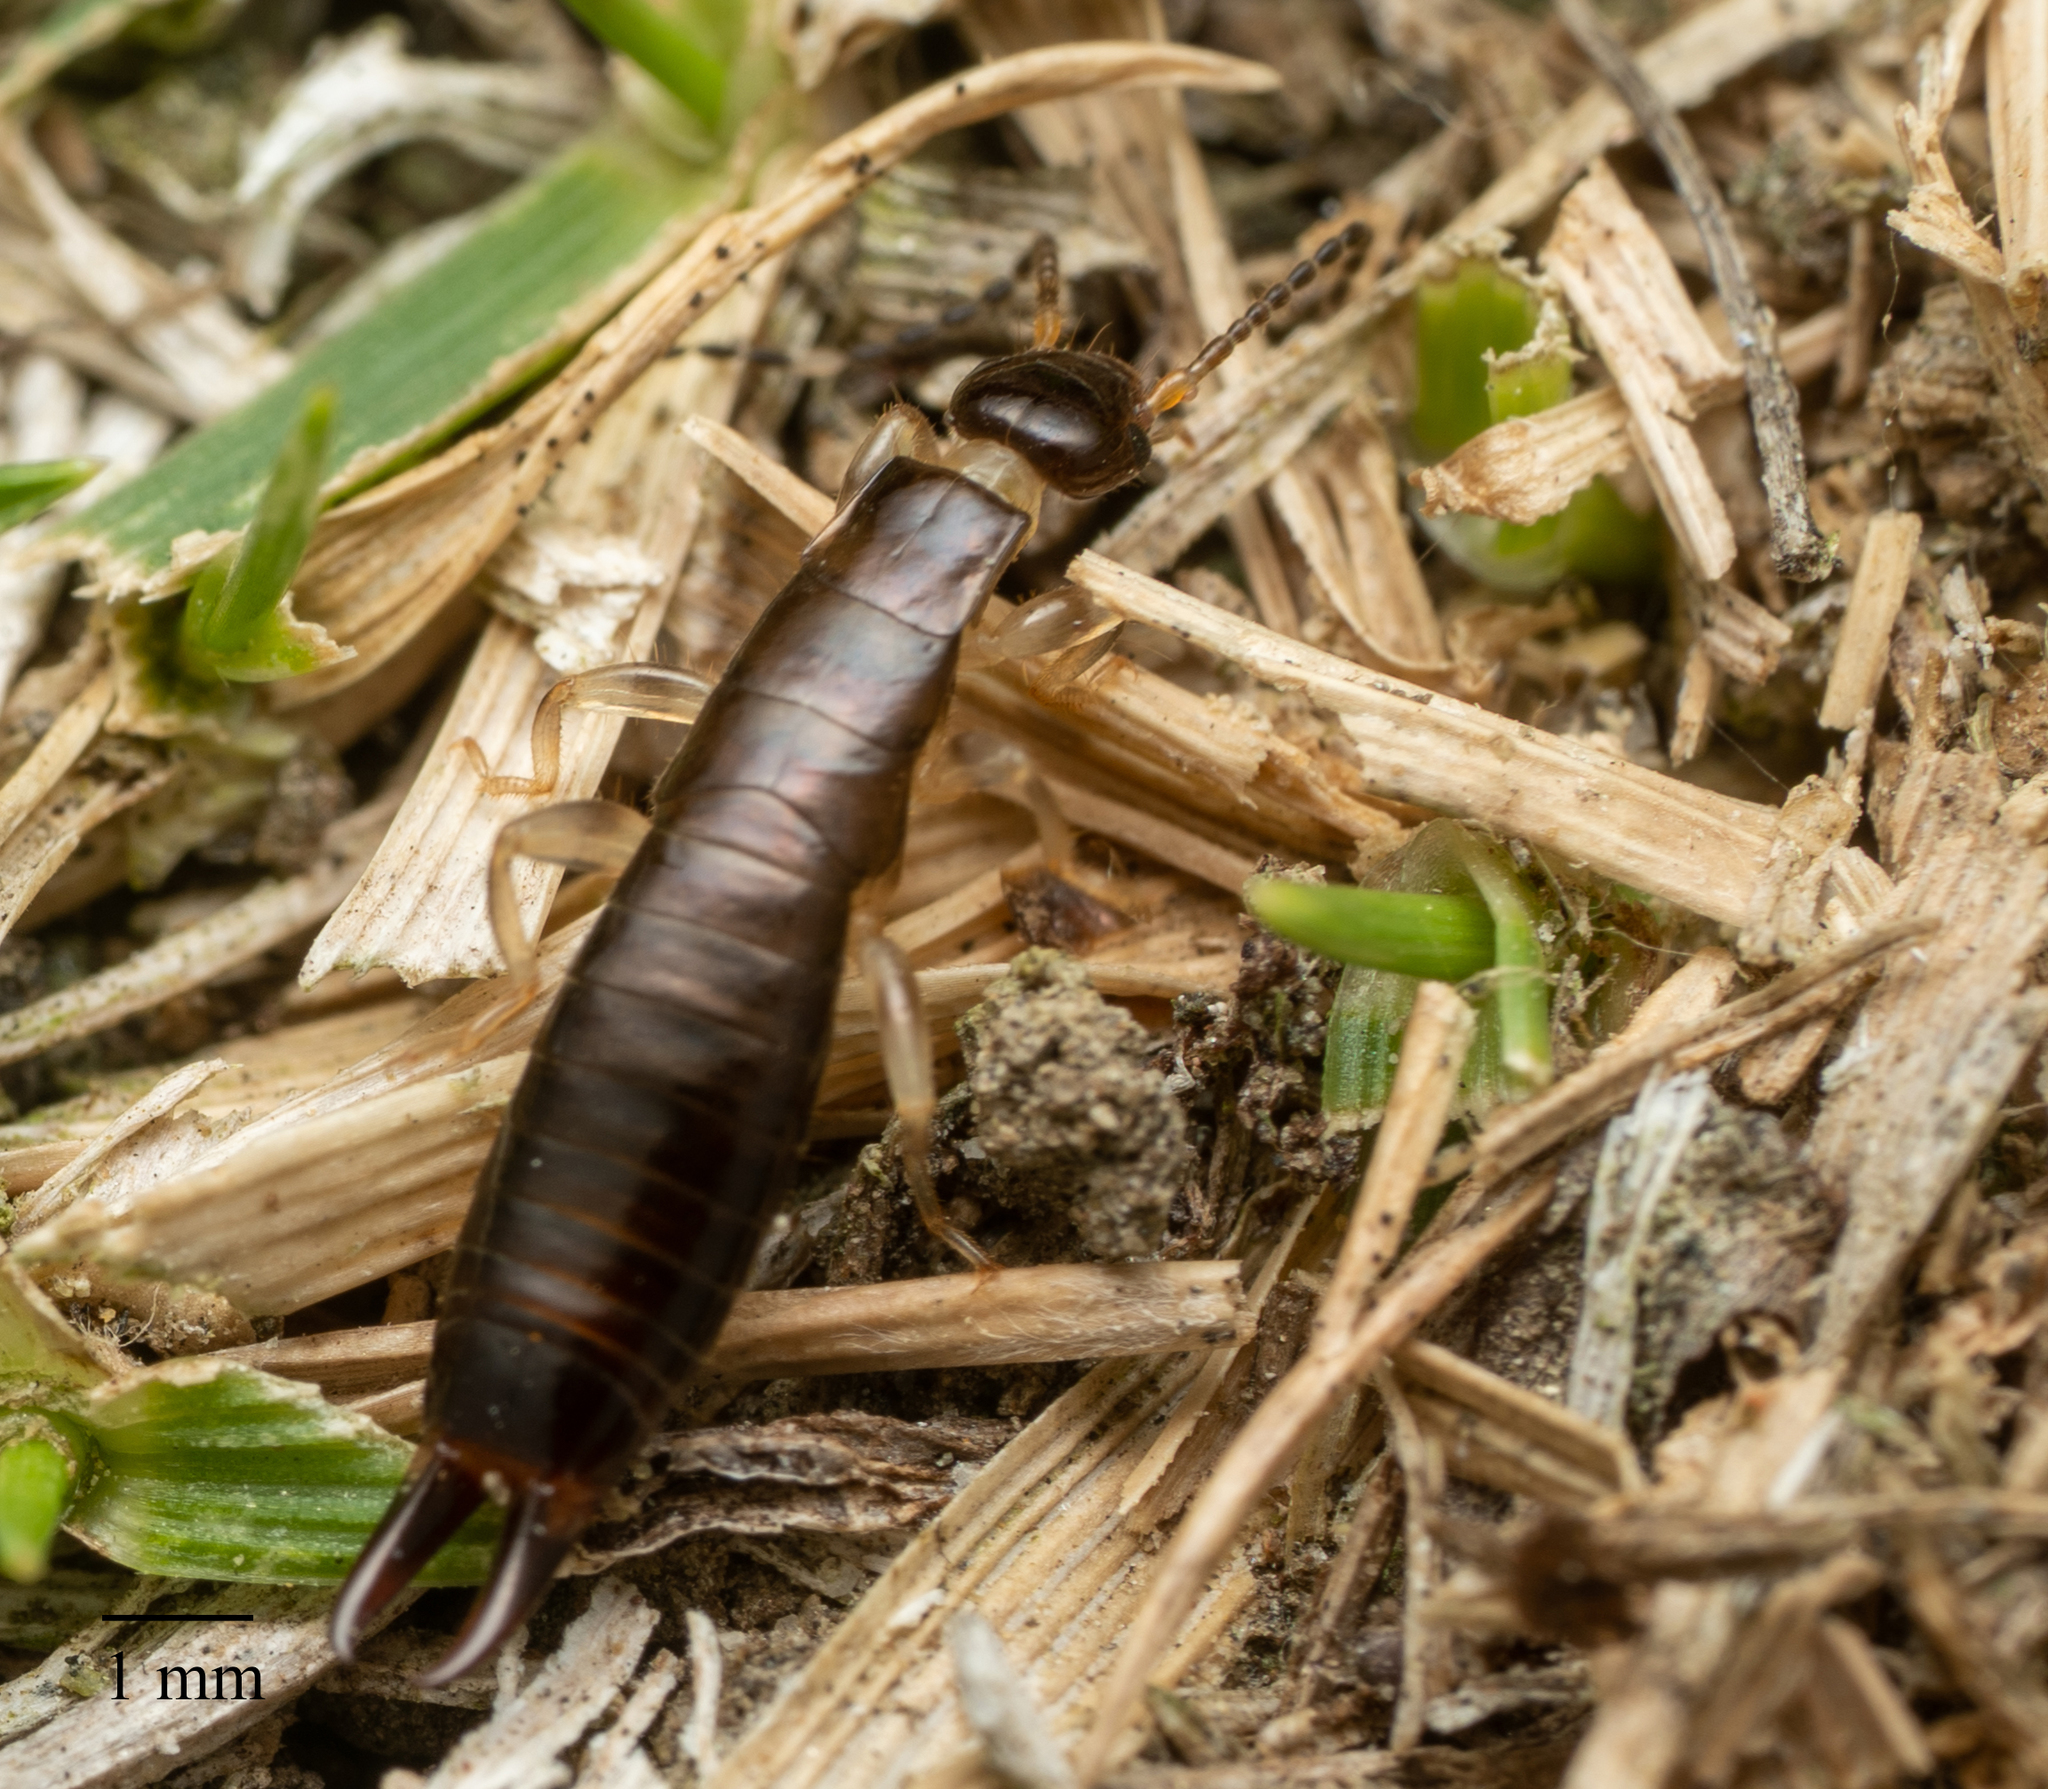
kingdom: Animalia
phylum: Arthropoda
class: Insecta
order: Dermaptera
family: Anisolabididae
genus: Euborellia
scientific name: Euborellia annulipes
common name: Ringlegged earwig
